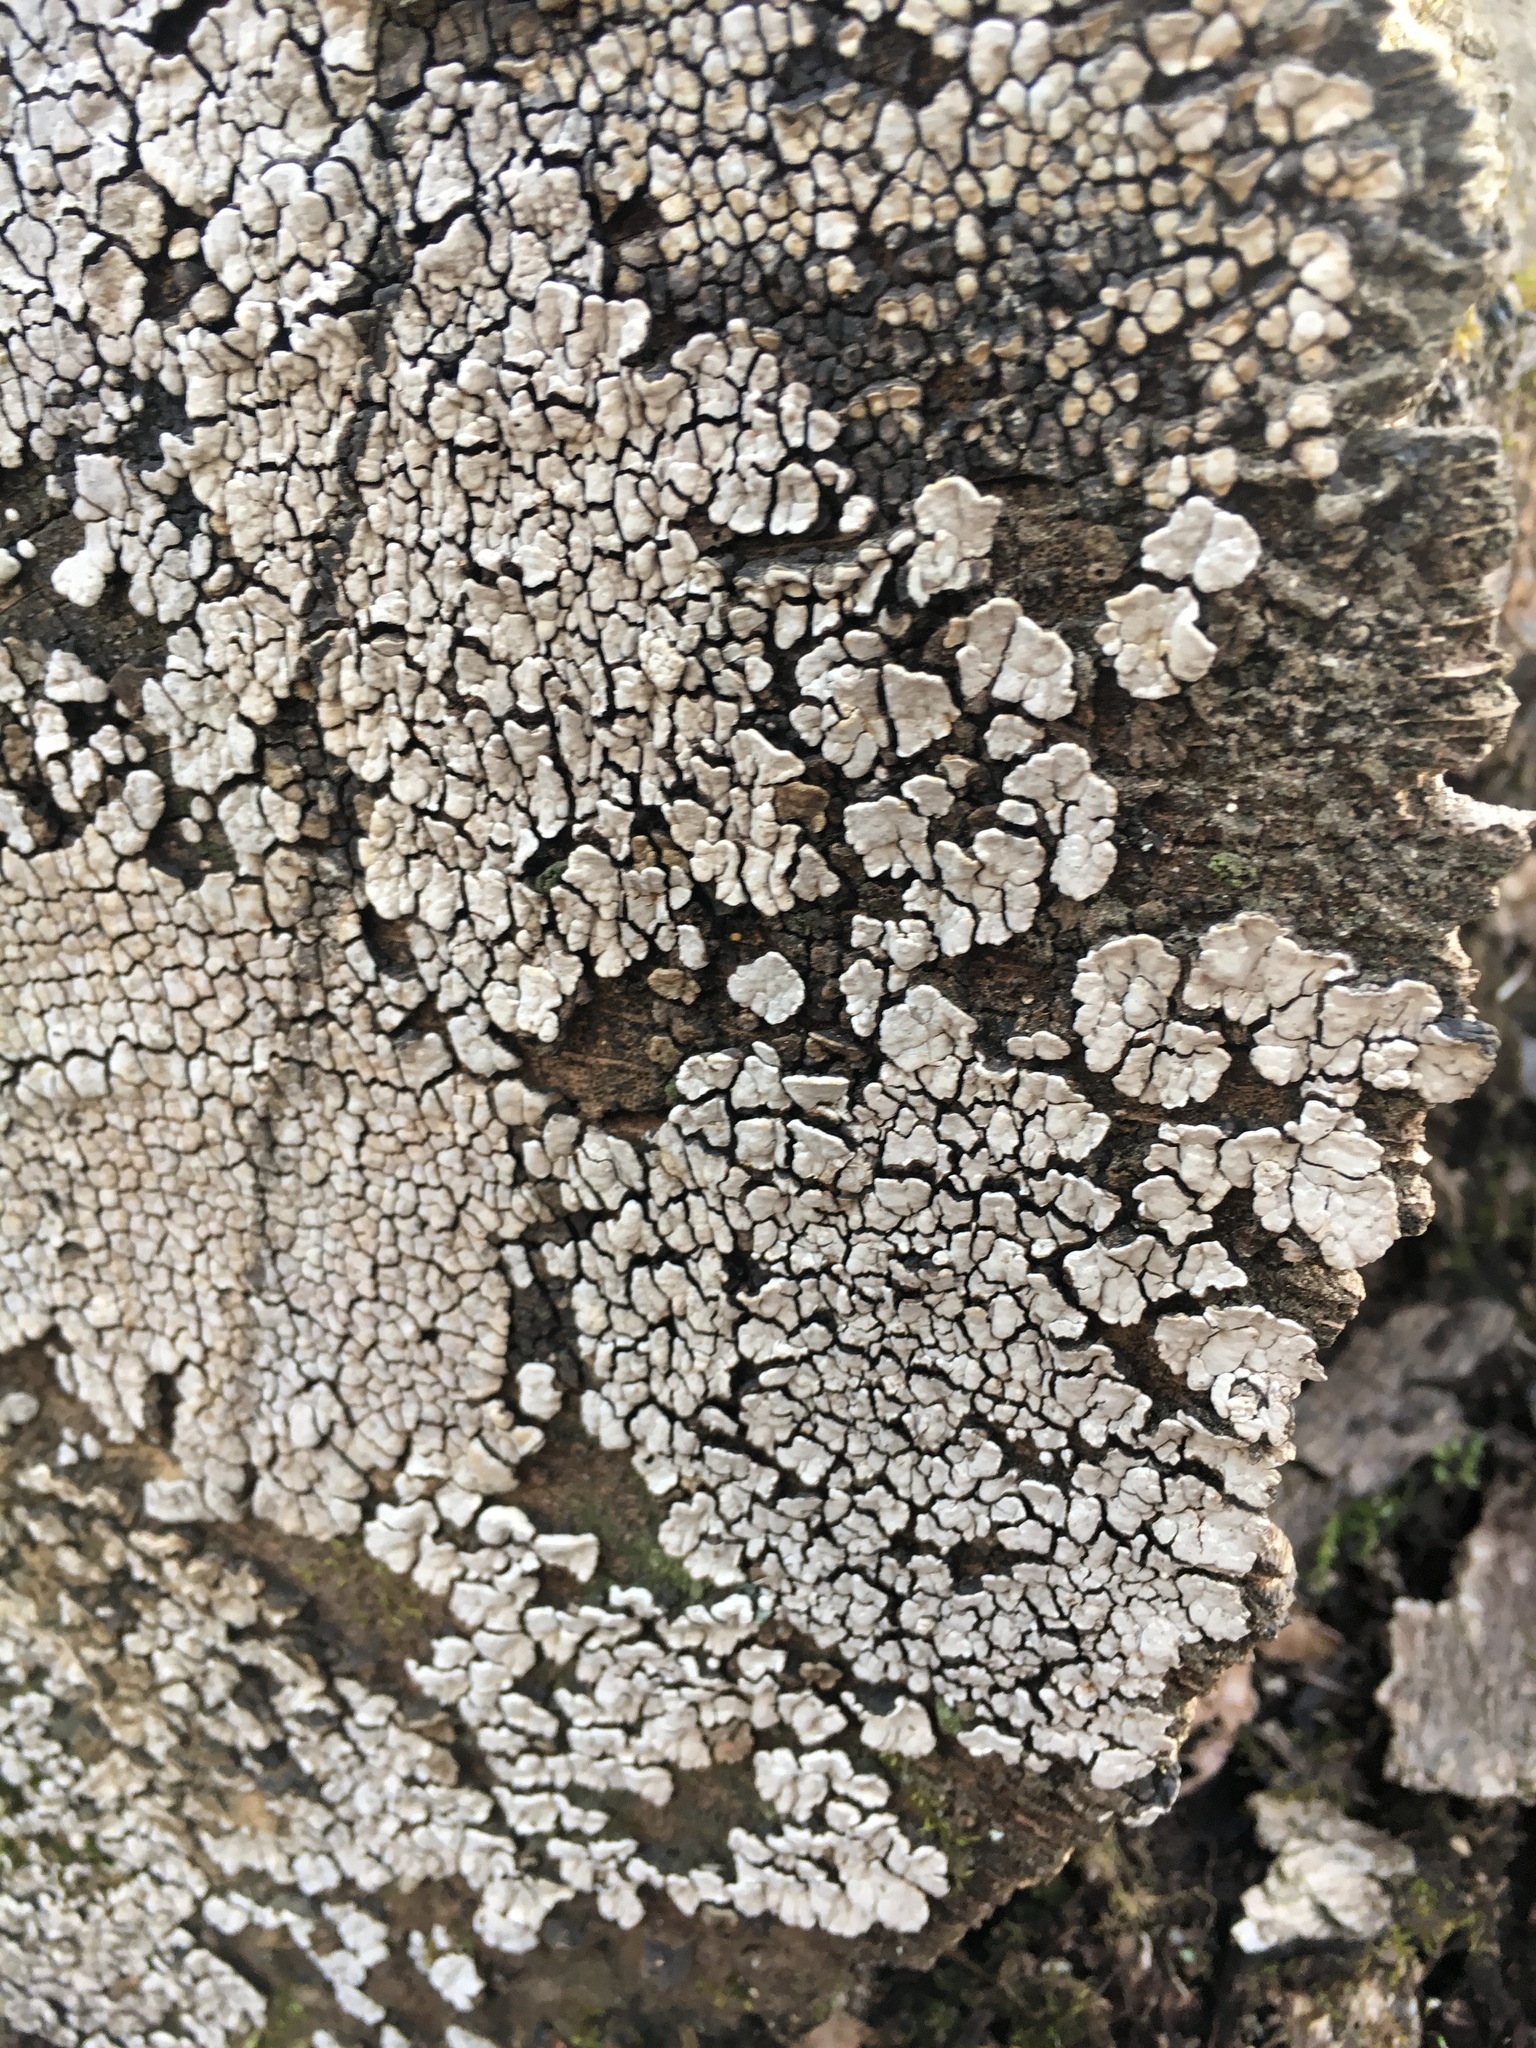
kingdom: Fungi
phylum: Basidiomycota
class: Agaricomycetes
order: Russulales
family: Stereaceae
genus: Xylobolus
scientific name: Xylobolus frustulatus
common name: Ceramic parchment
